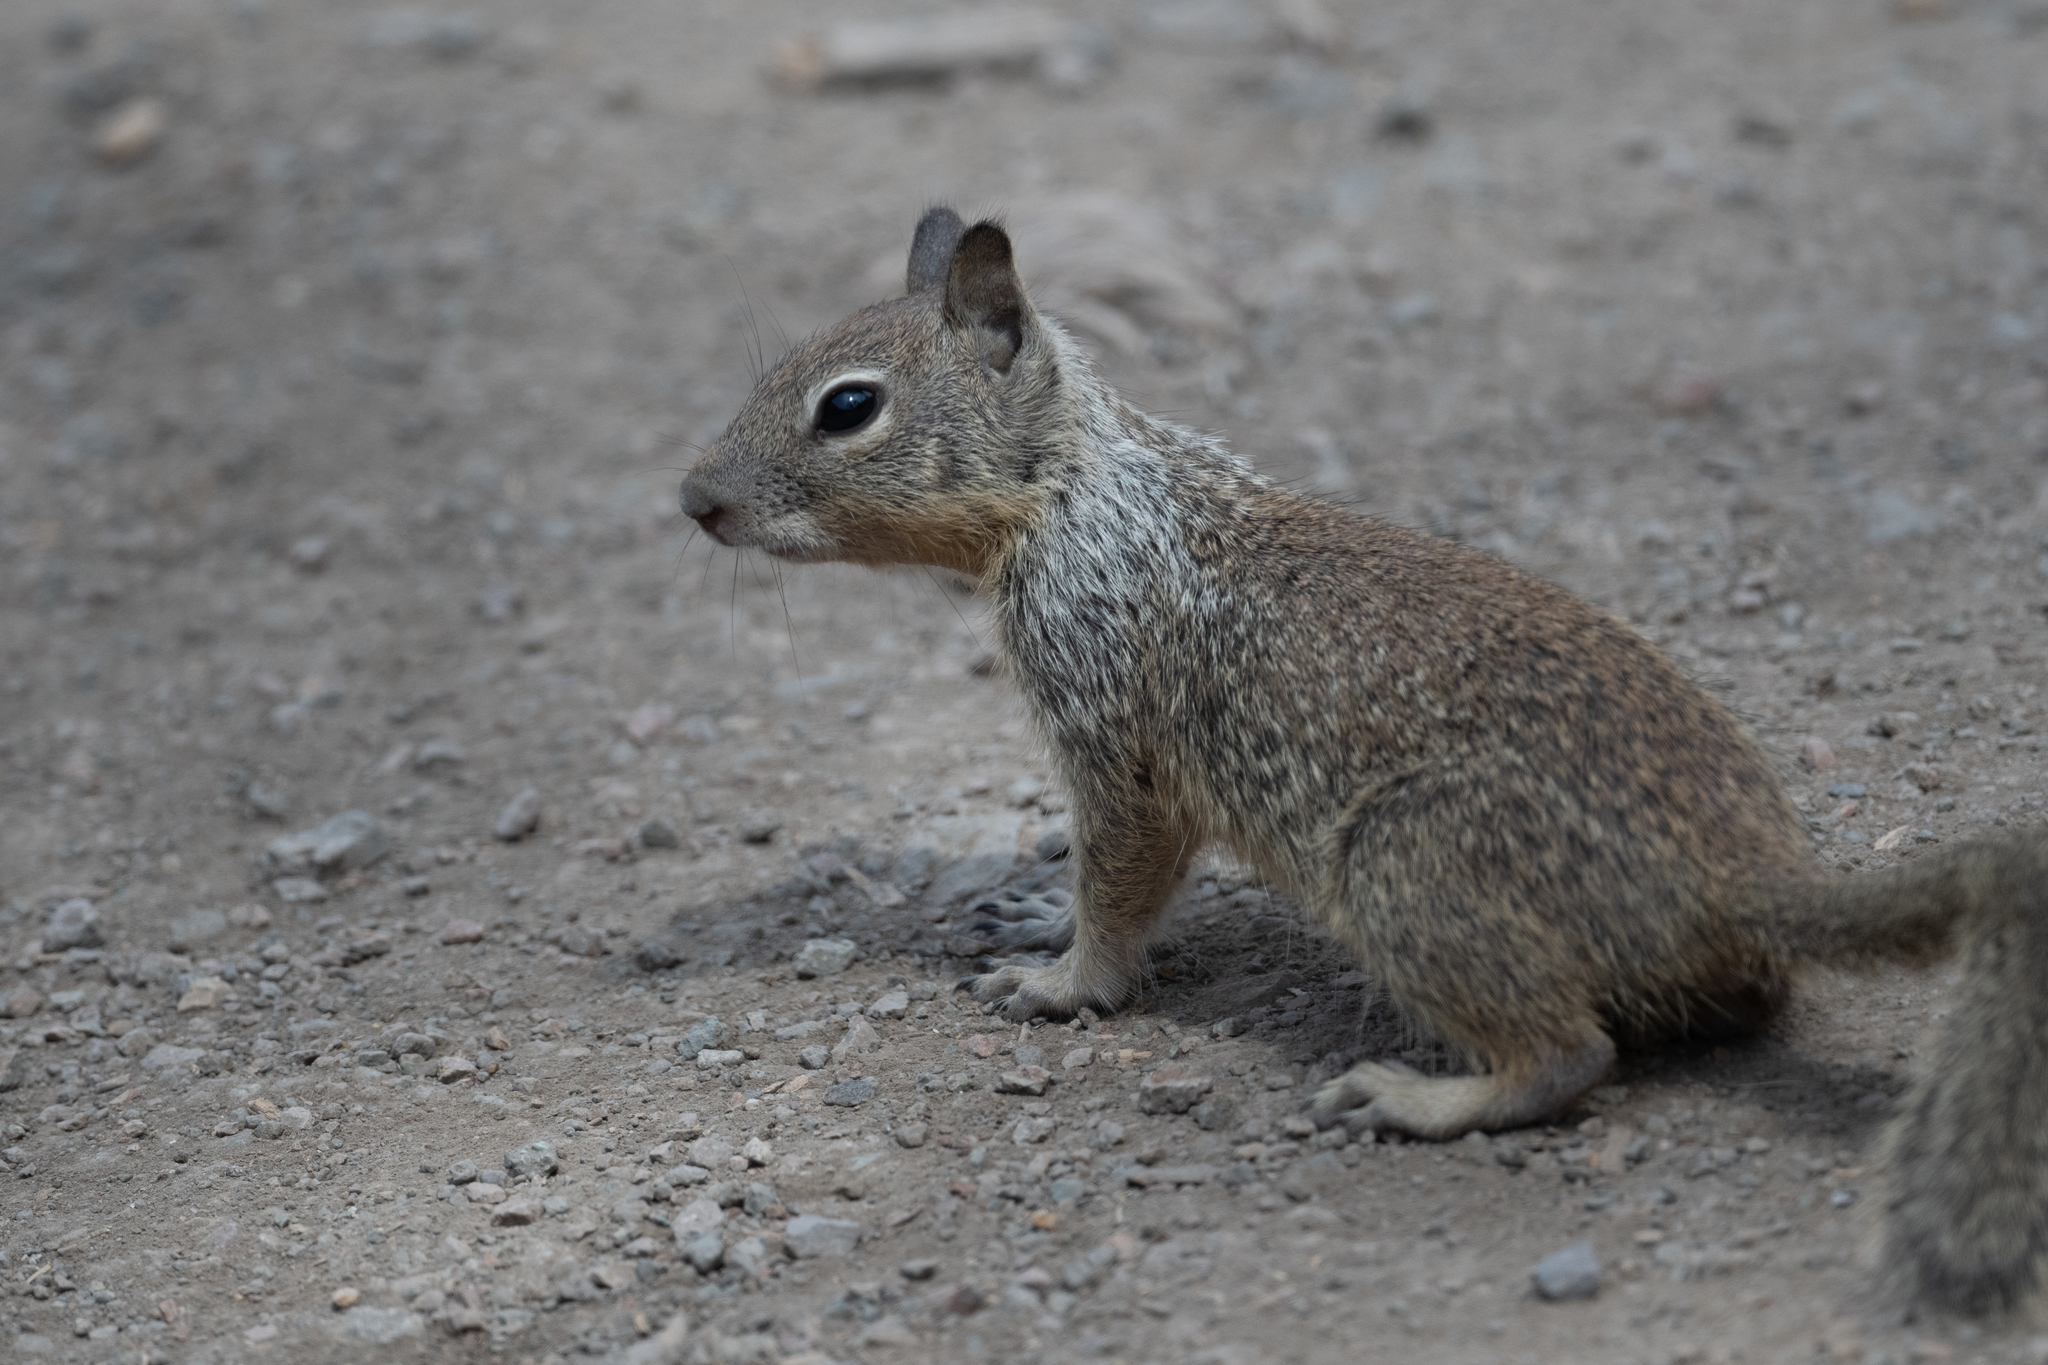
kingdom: Animalia
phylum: Chordata
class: Mammalia
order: Rodentia
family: Sciuridae
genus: Otospermophilus
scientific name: Otospermophilus beecheyi
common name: California ground squirrel
